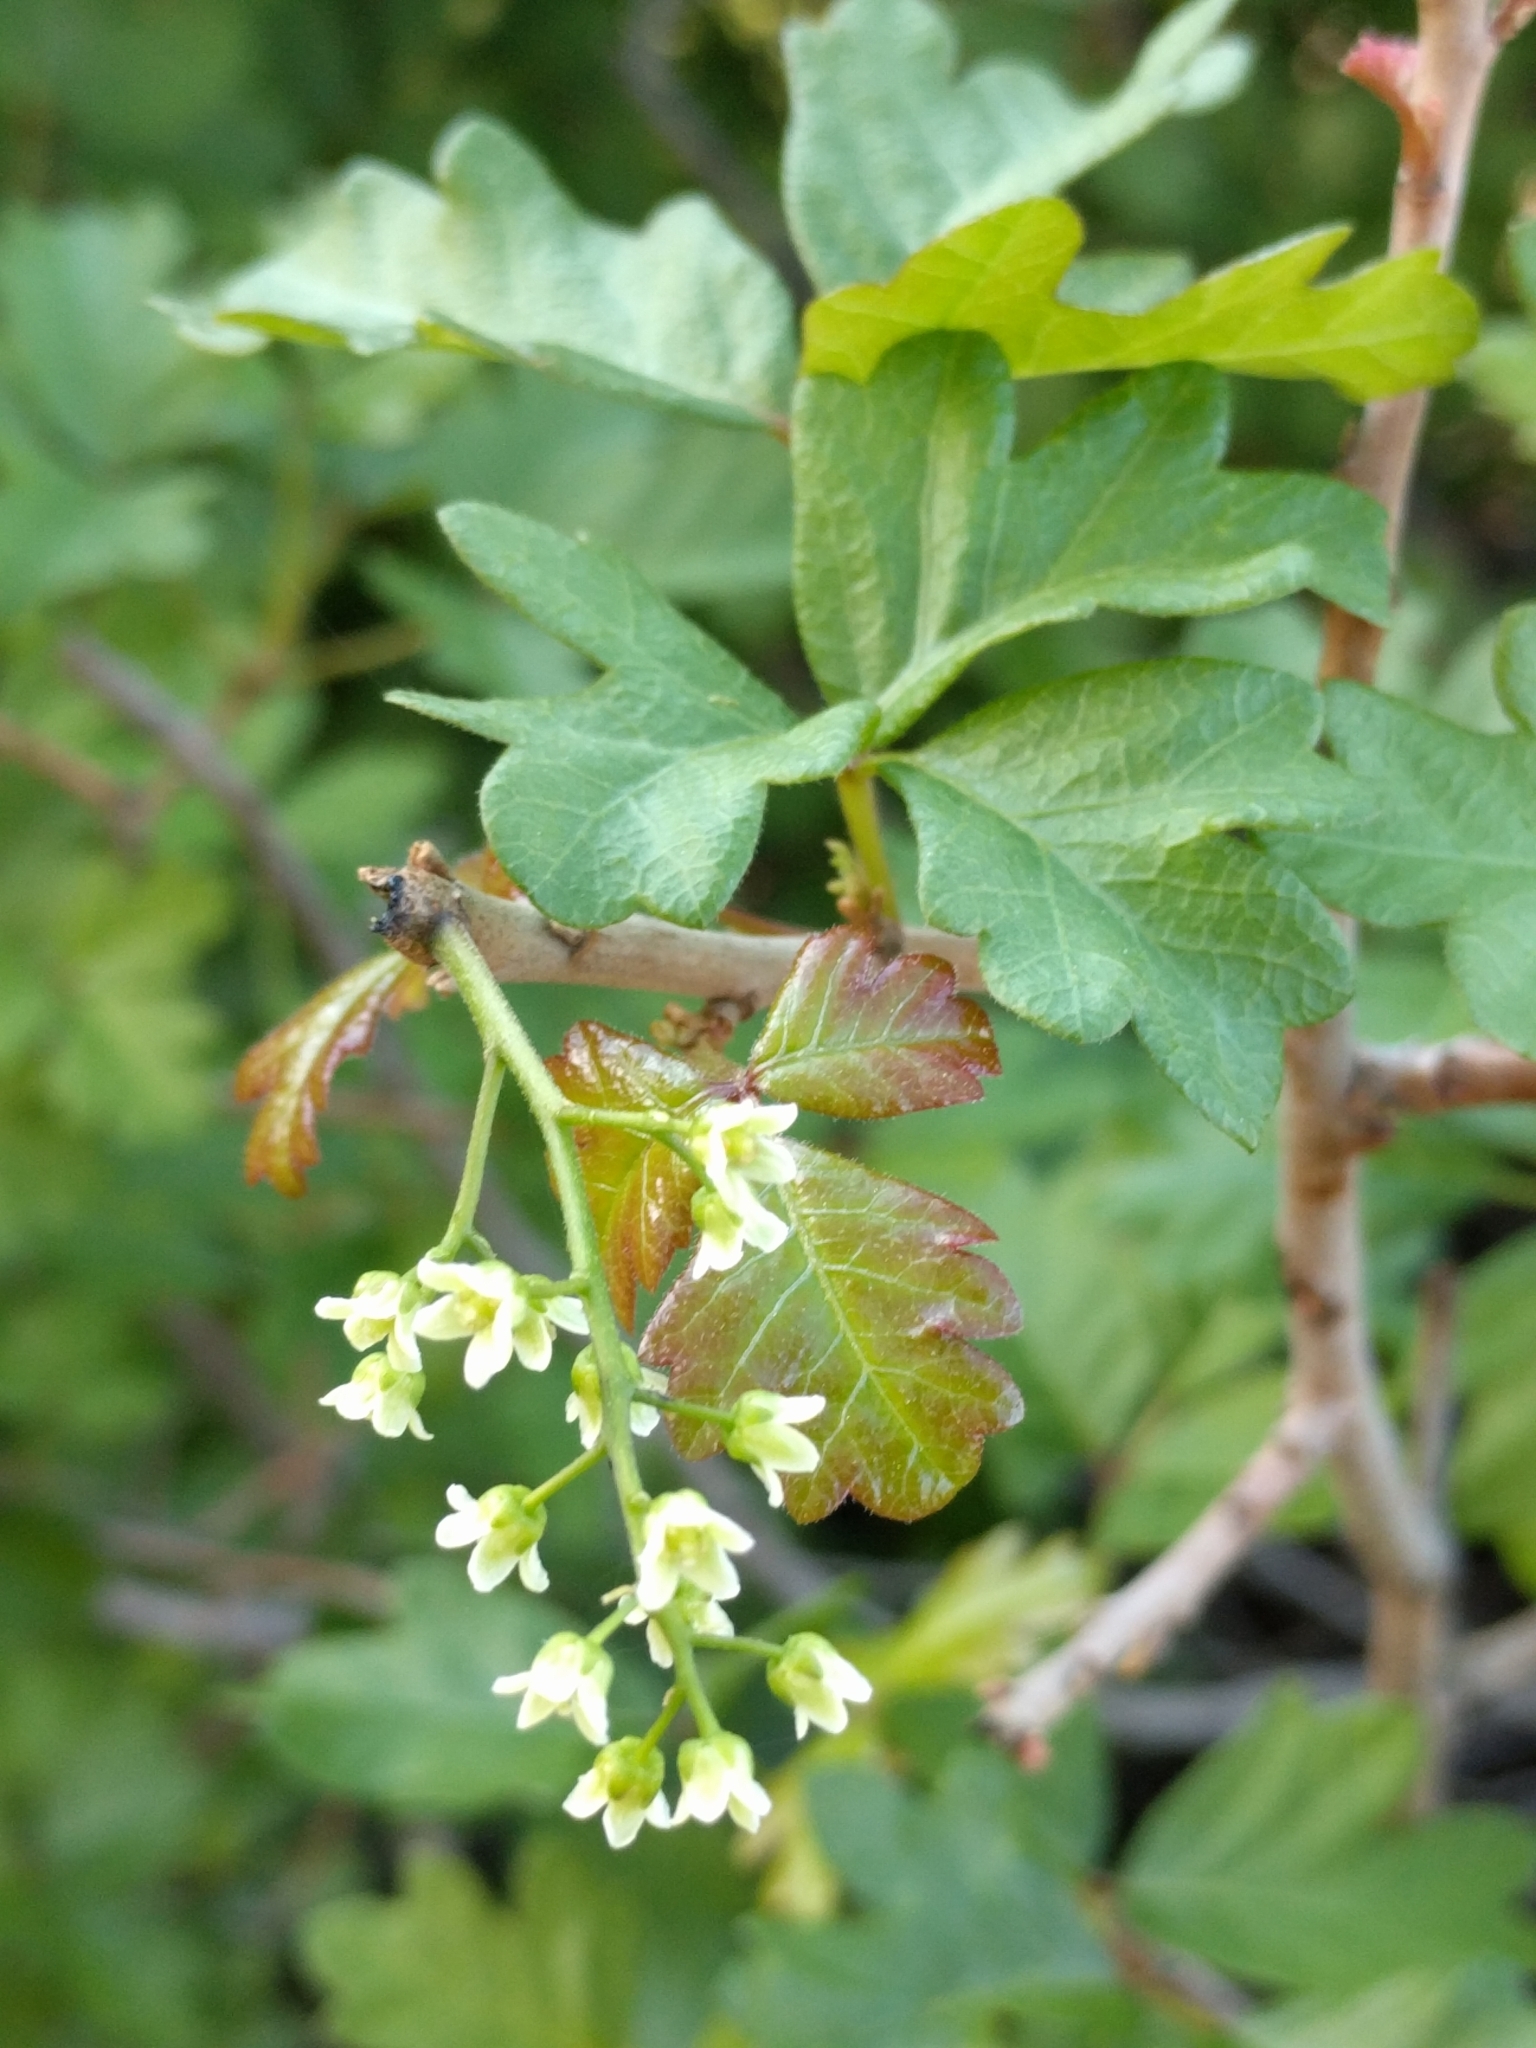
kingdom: Plantae
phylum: Tracheophyta
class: Magnoliopsida
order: Sapindales
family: Anacardiaceae
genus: Toxicodendron
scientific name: Toxicodendron diversilobum
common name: Pacific poison-oak
